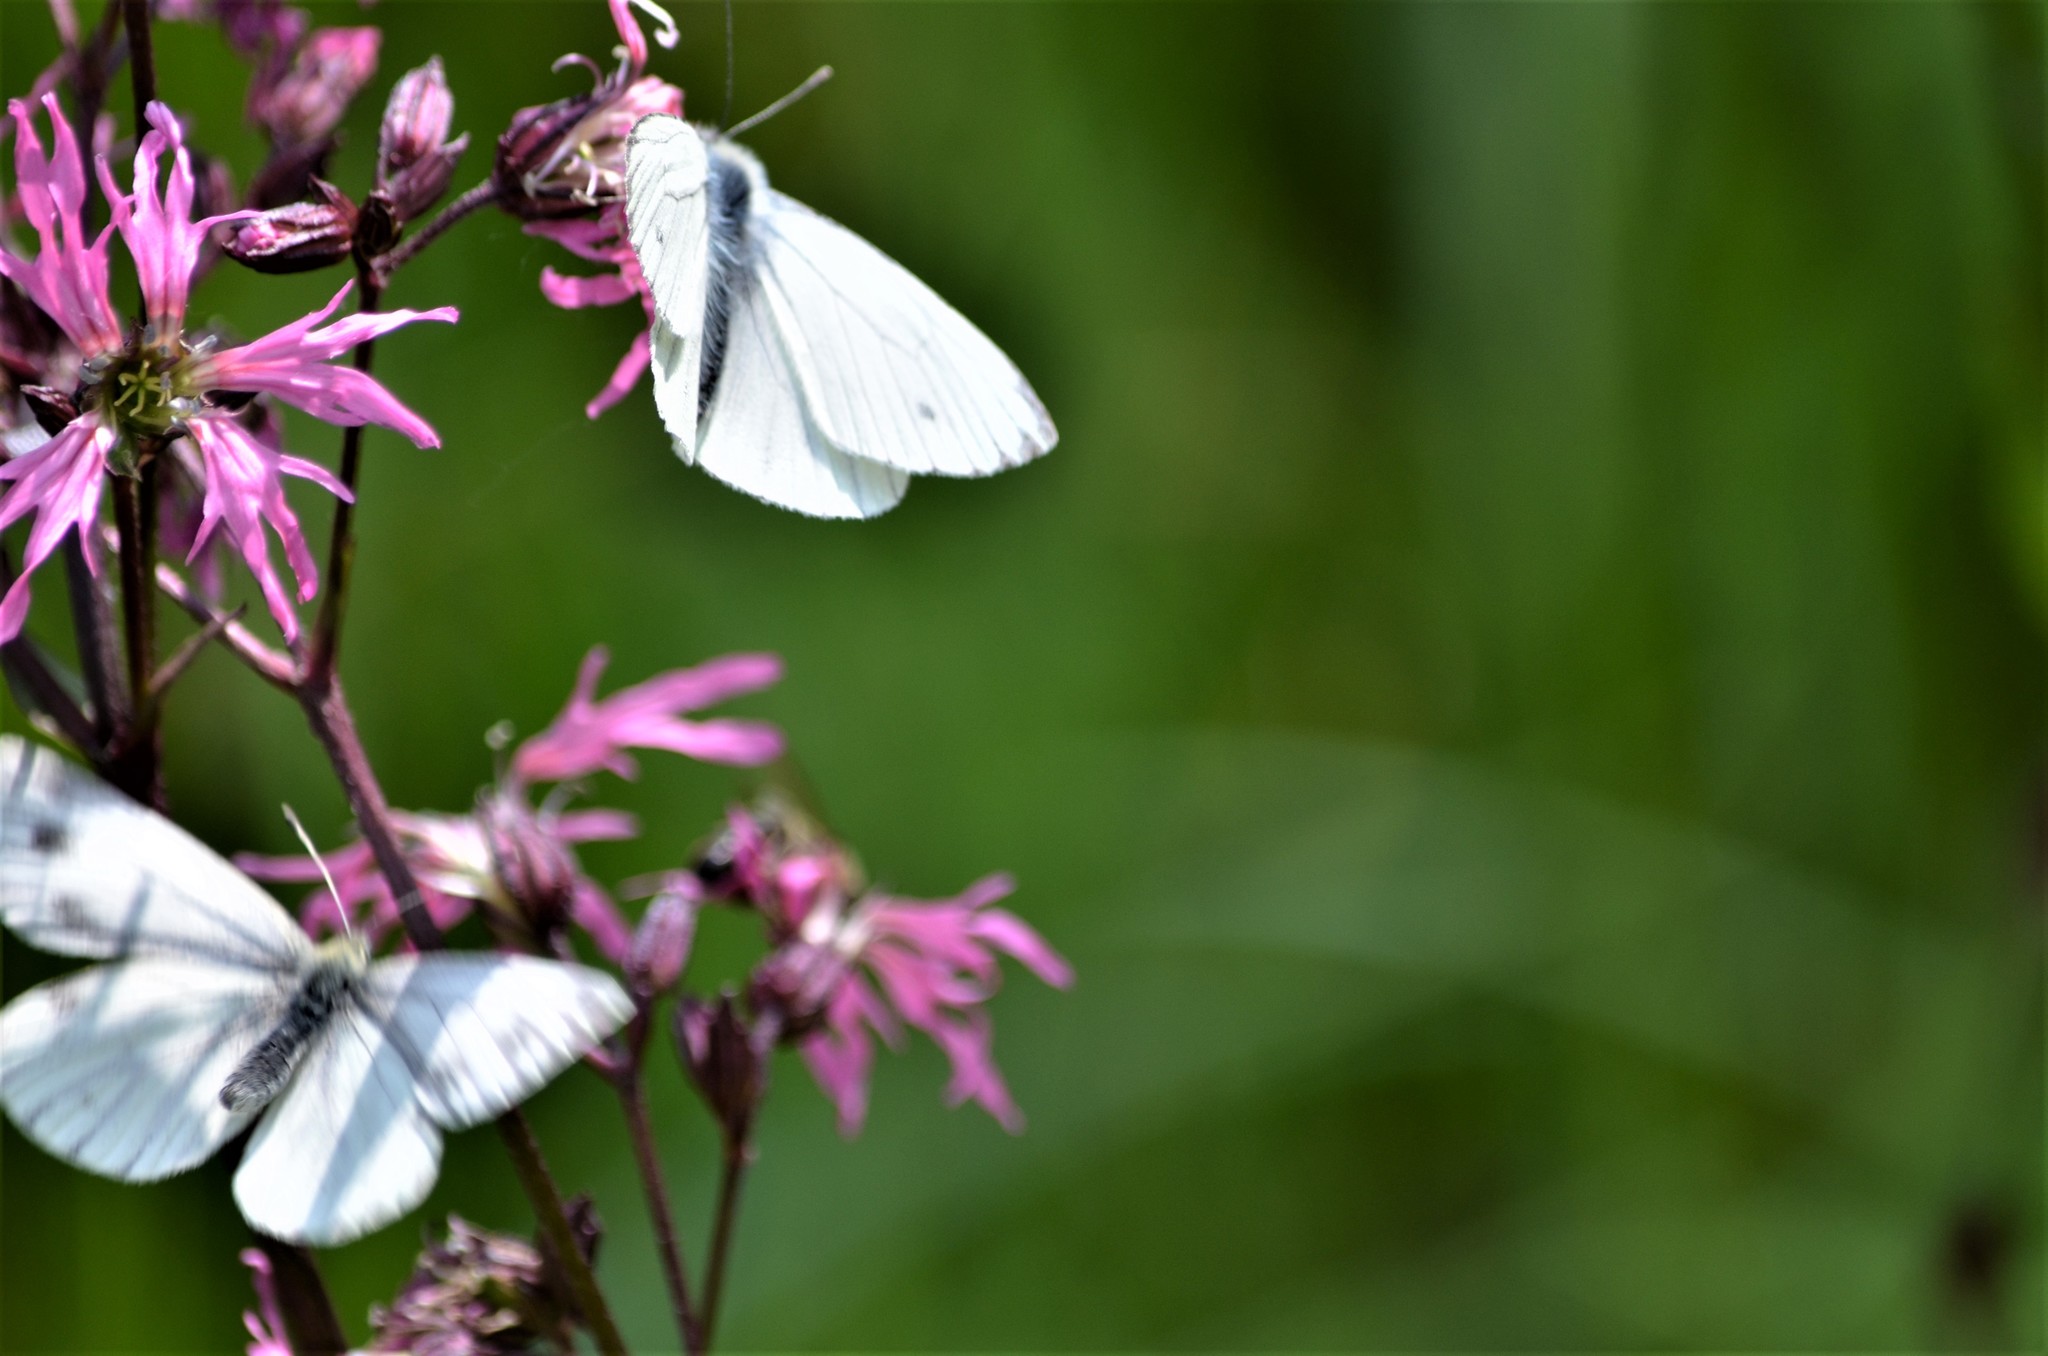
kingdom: Animalia
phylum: Arthropoda
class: Insecta
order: Lepidoptera
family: Pieridae
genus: Pieris
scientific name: Pieris napi
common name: Green-veined white
